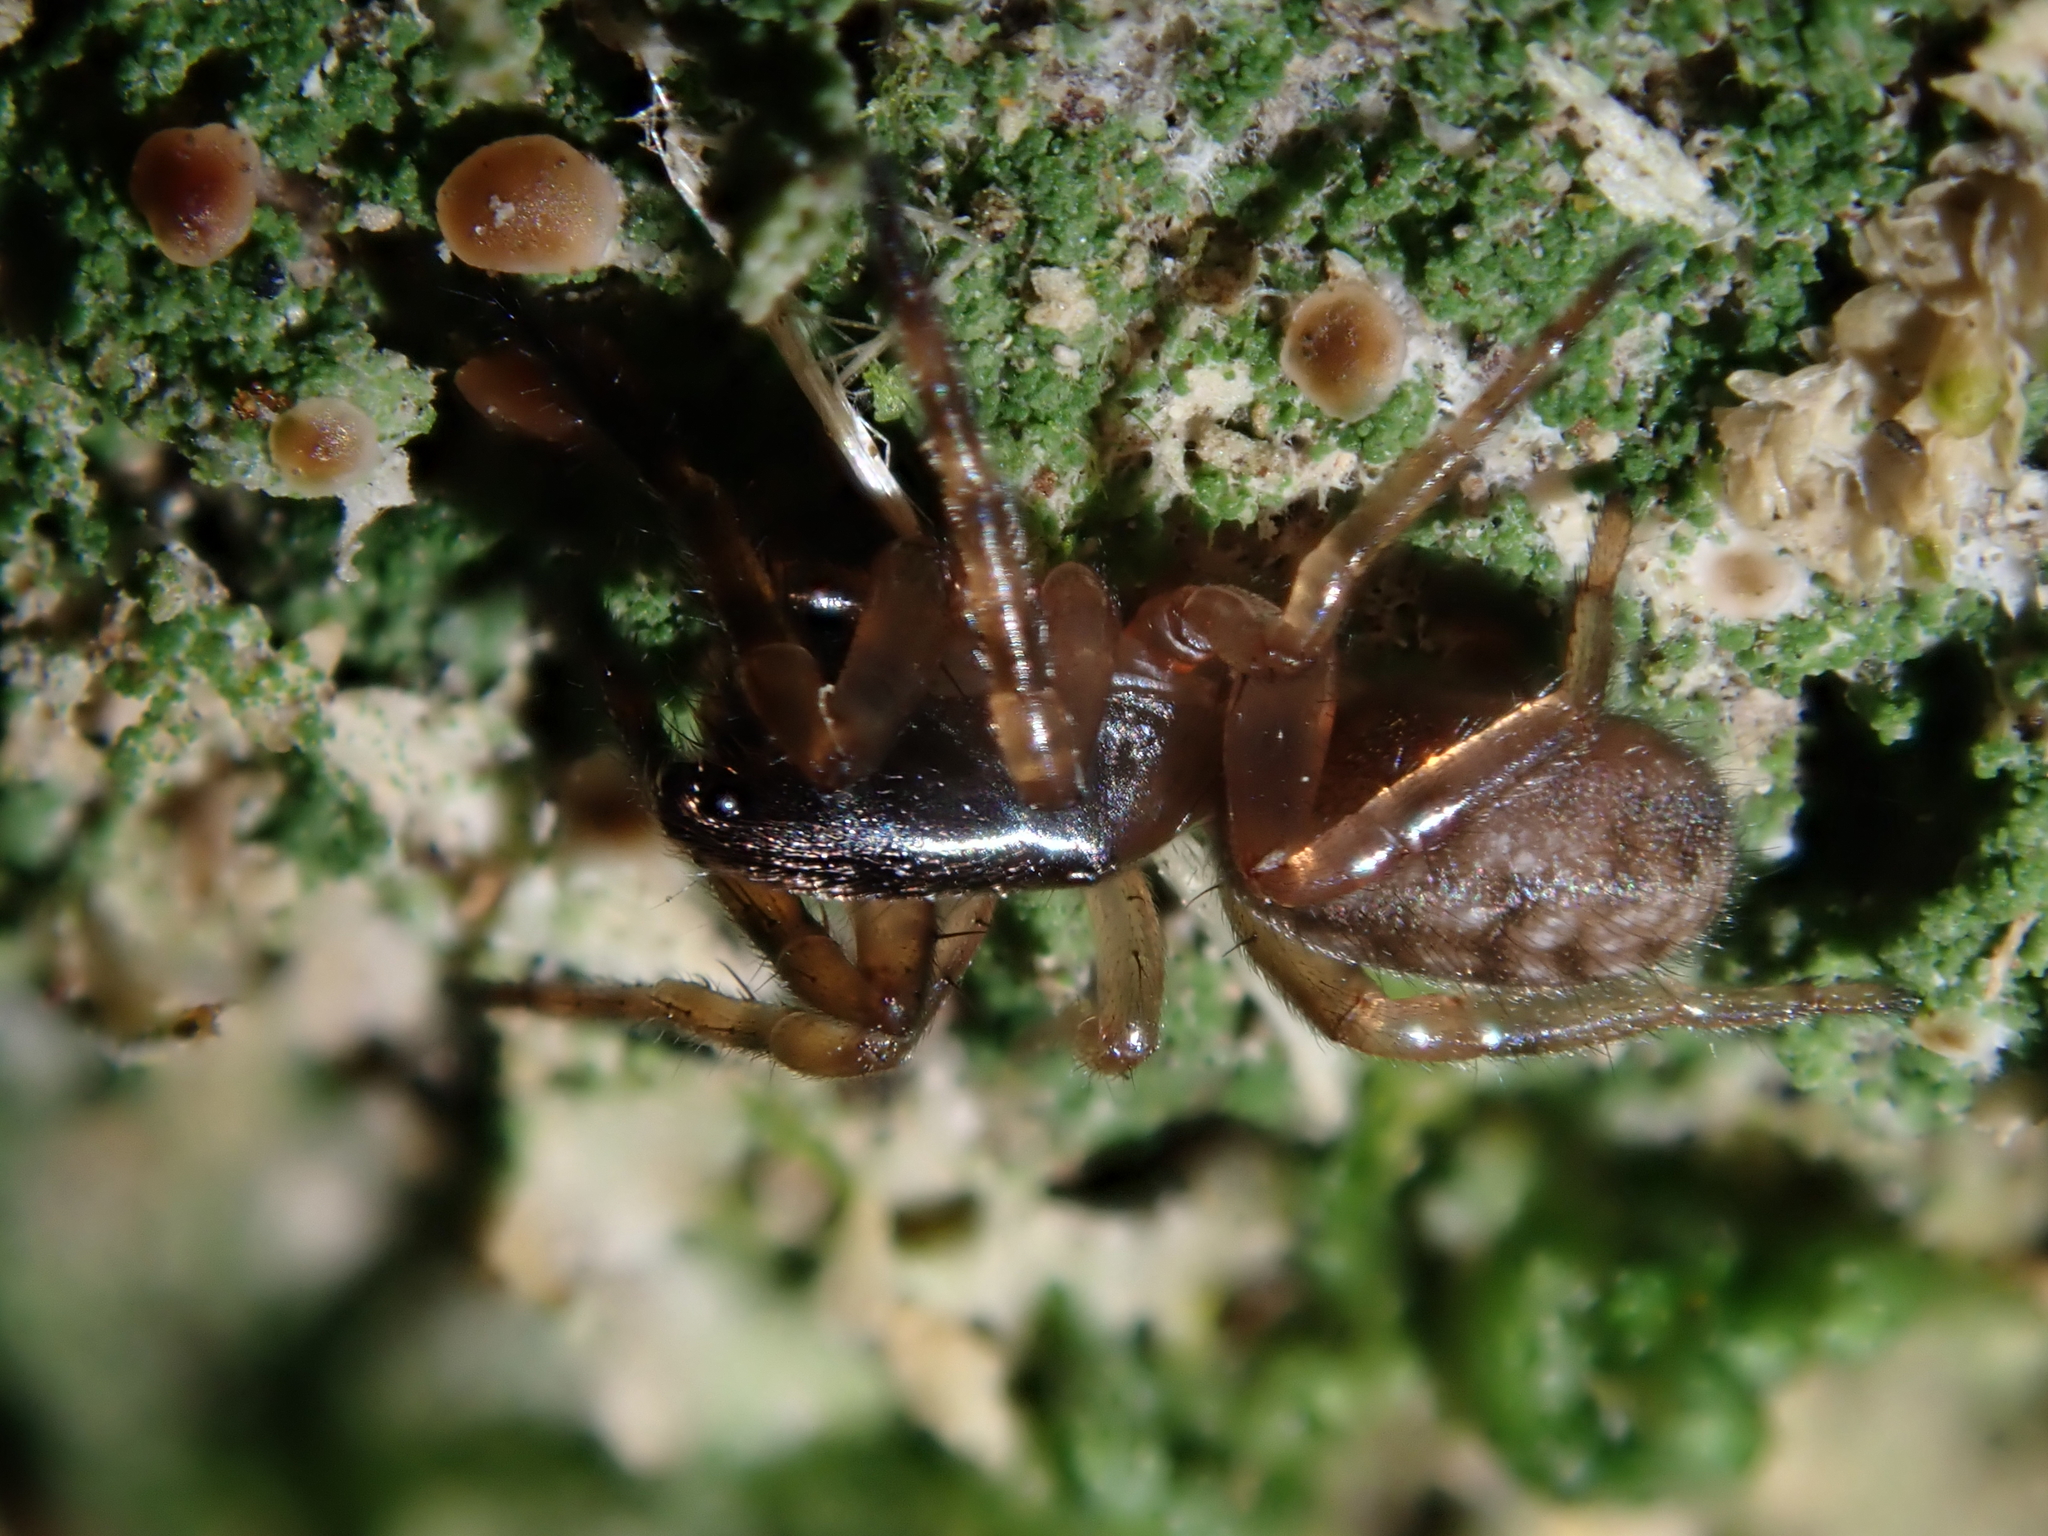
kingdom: Animalia
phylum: Arthropoda
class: Arachnida
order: Araneae
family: Cycloctenidae
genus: Plectophanes
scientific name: Plectophanes
